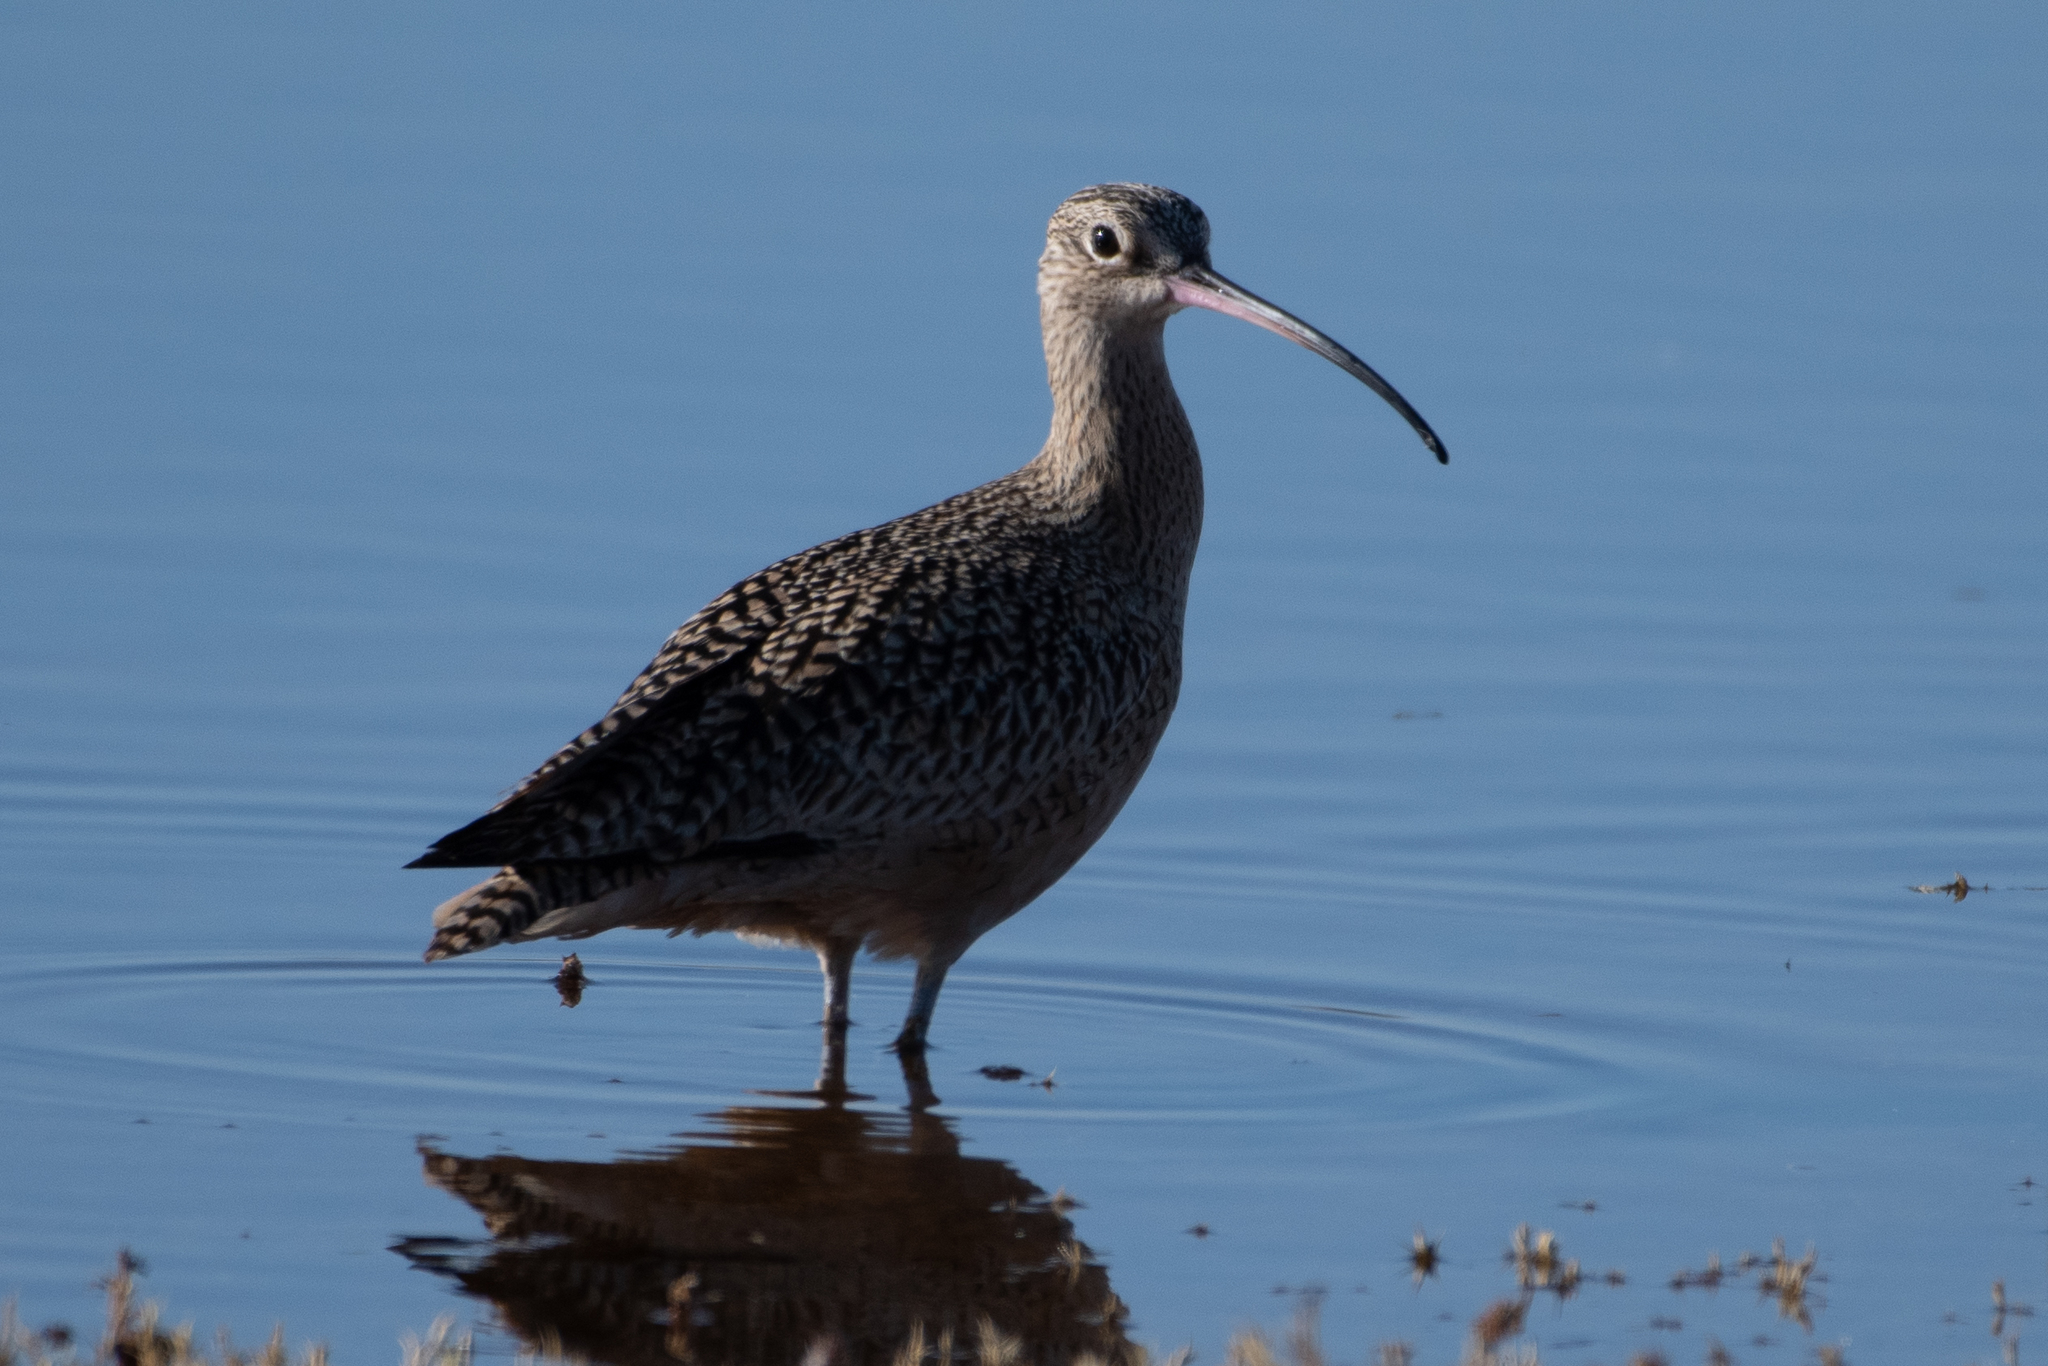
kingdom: Animalia
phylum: Chordata
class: Aves
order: Charadriiformes
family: Scolopacidae
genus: Numenius
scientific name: Numenius americanus
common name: Long-billed curlew
